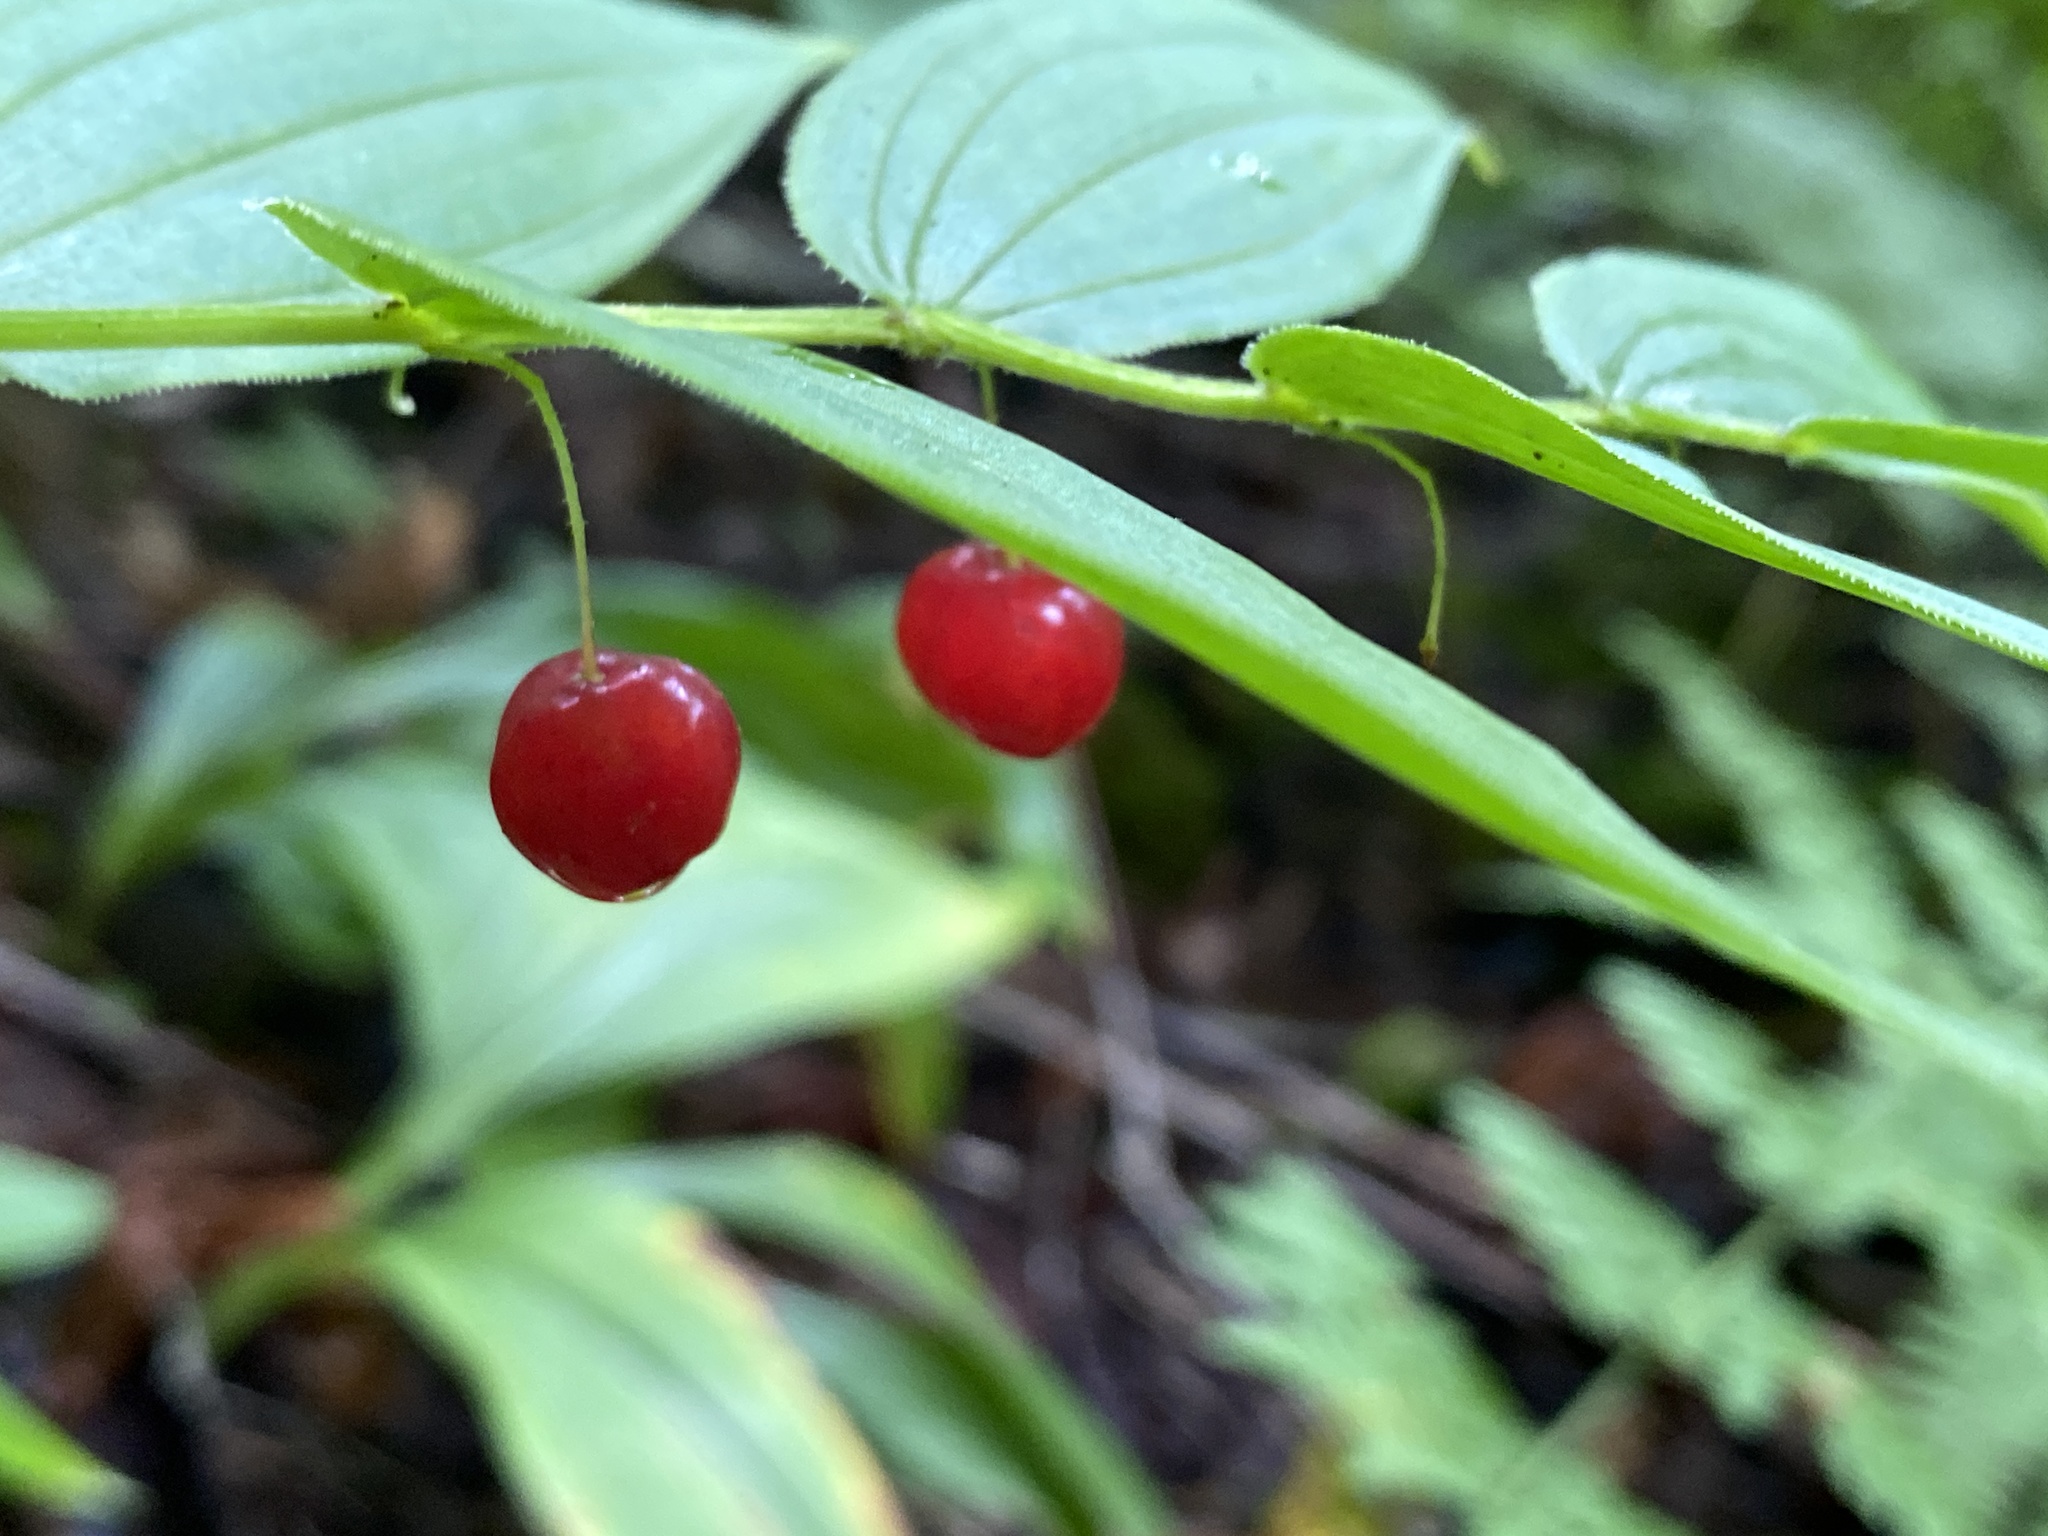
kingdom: Plantae
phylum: Tracheophyta
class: Liliopsida
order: Liliales
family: Liliaceae
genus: Streptopus
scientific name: Streptopus lanceolatus
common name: Rose mandarin
